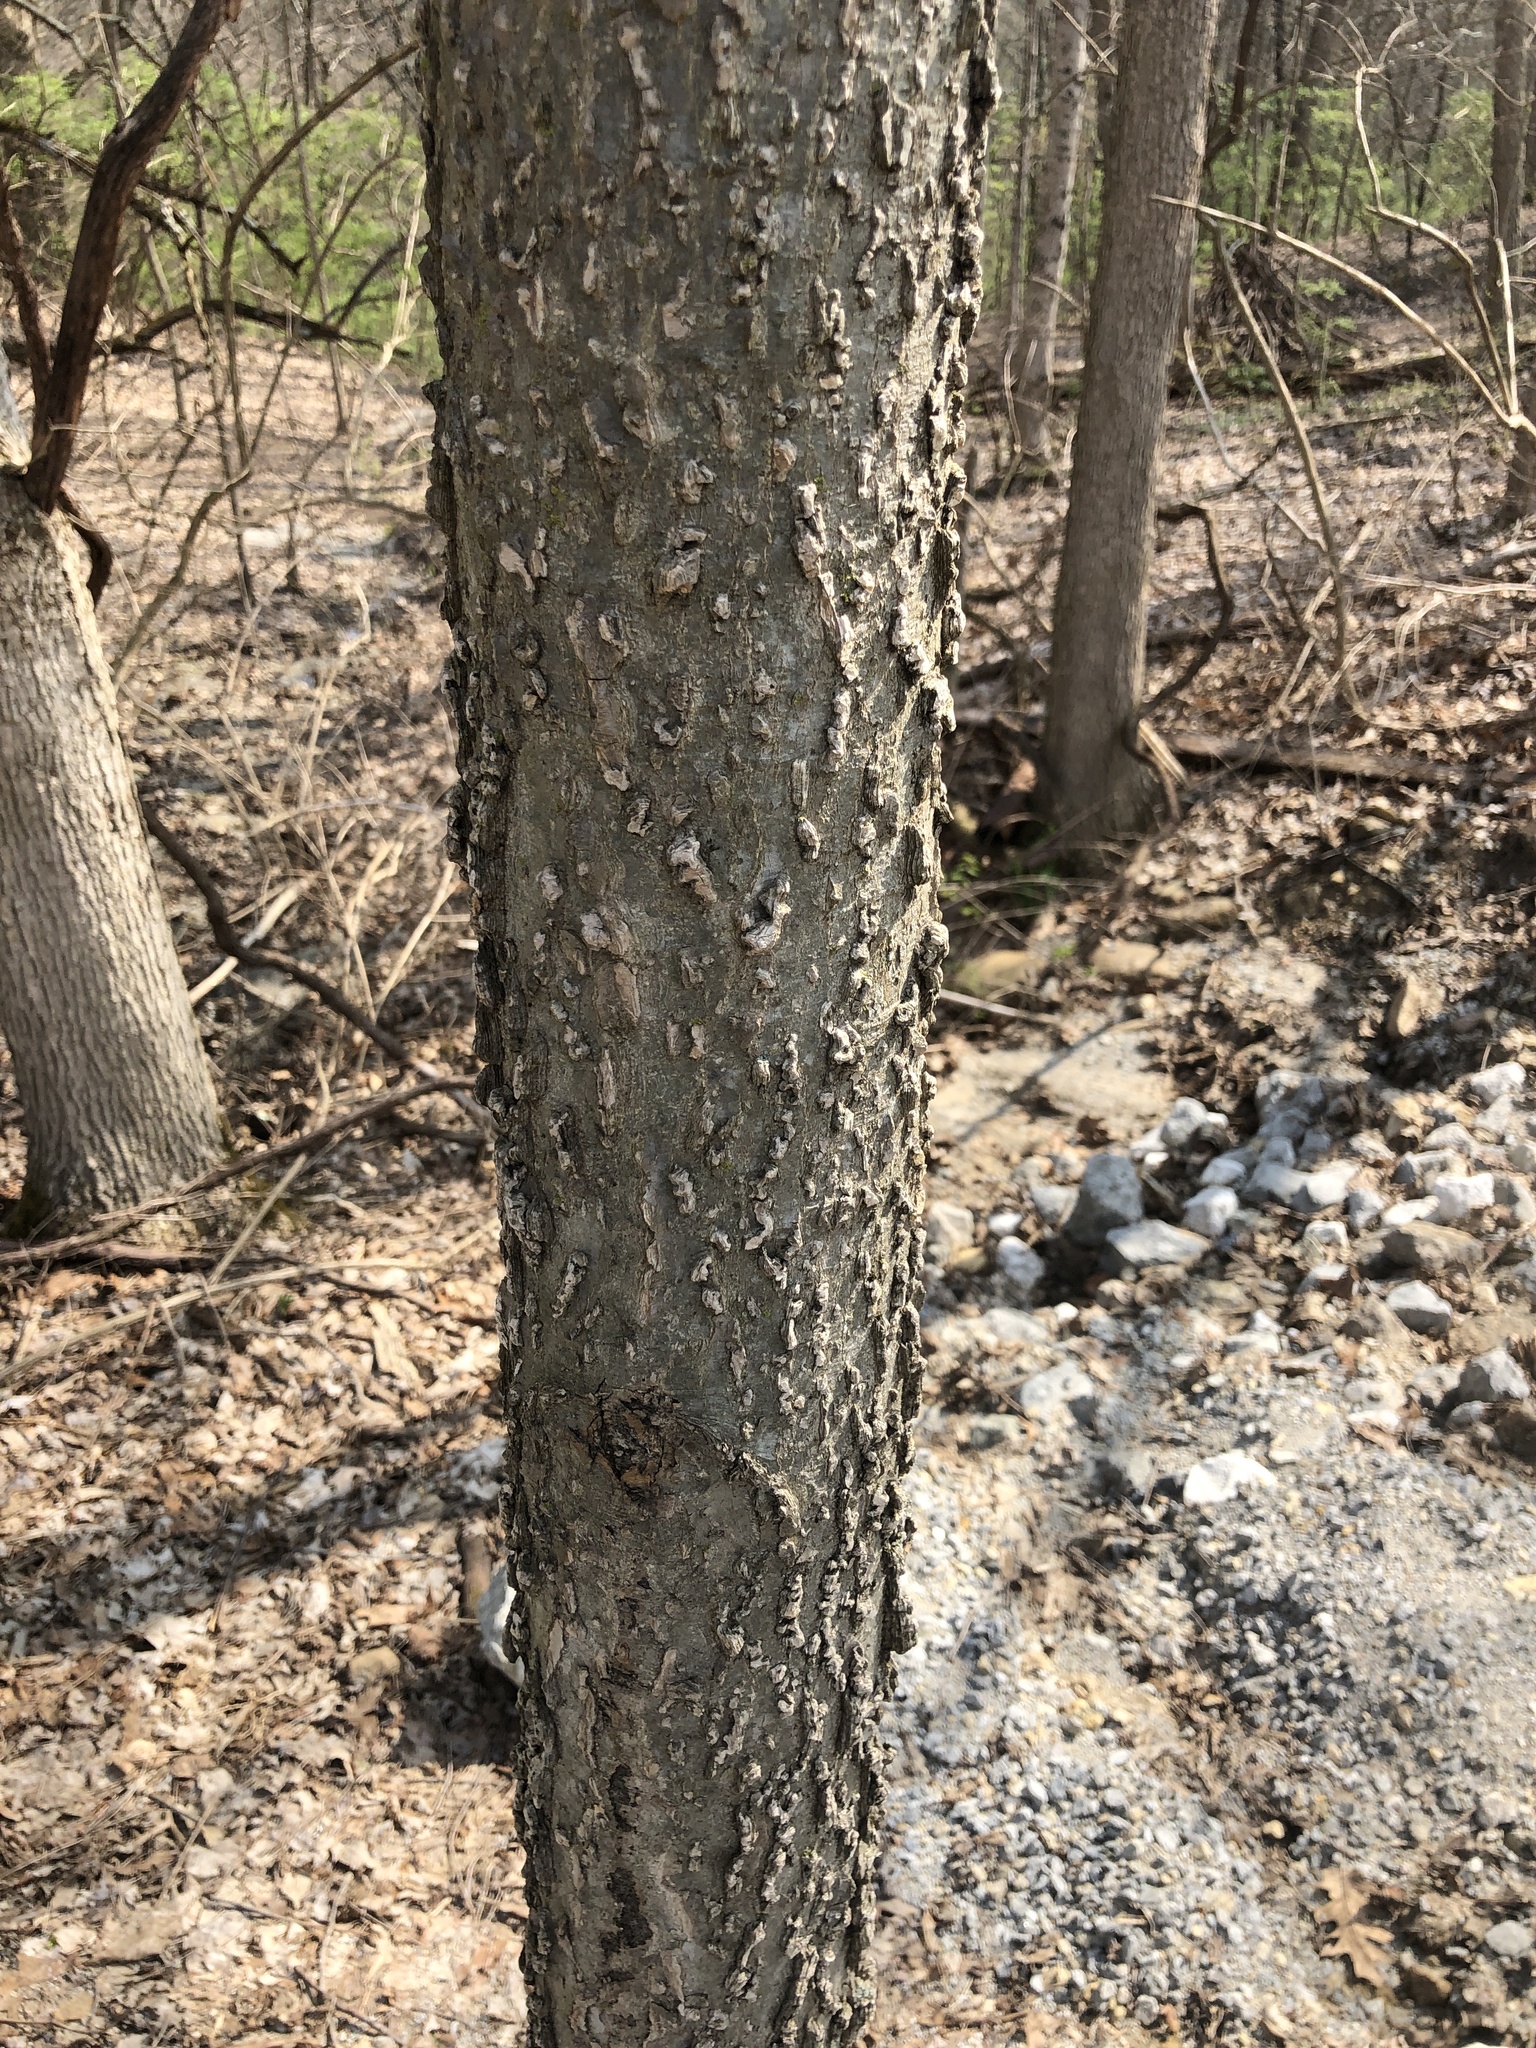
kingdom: Plantae
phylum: Tracheophyta
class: Magnoliopsida
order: Rosales
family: Cannabaceae
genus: Celtis
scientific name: Celtis occidentalis
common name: Common hackberry
